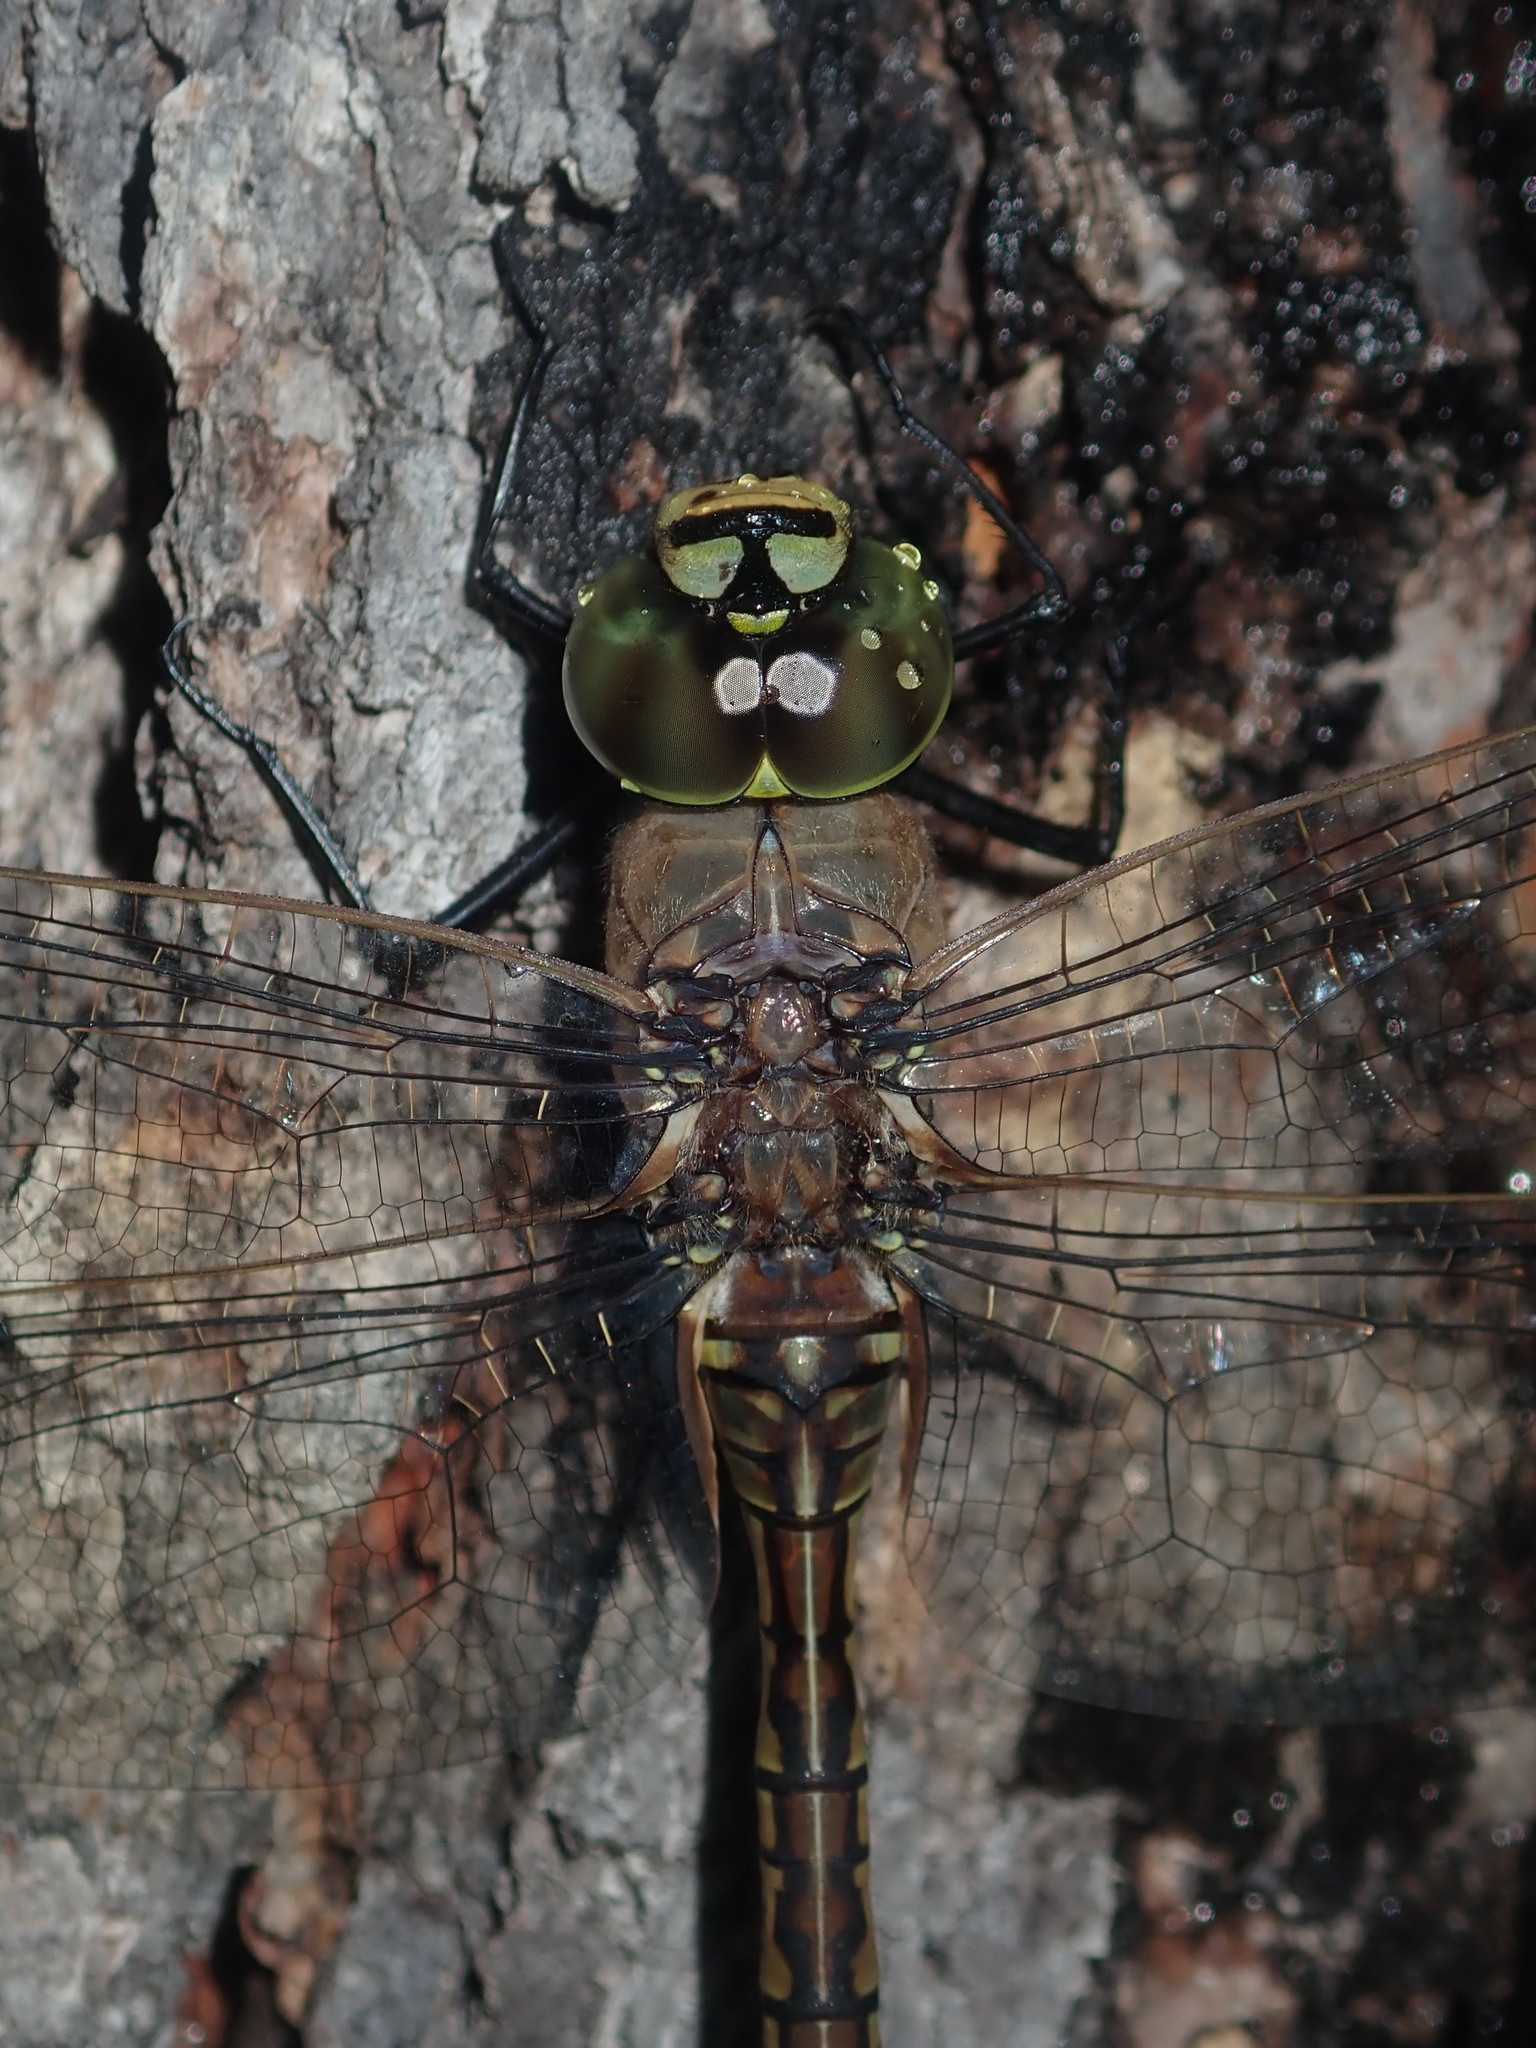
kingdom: Animalia
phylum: Arthropoda
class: Insecta
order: Odonata
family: Aeshnidae
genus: Anax
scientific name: Anax papuensis
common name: Australian emperor
